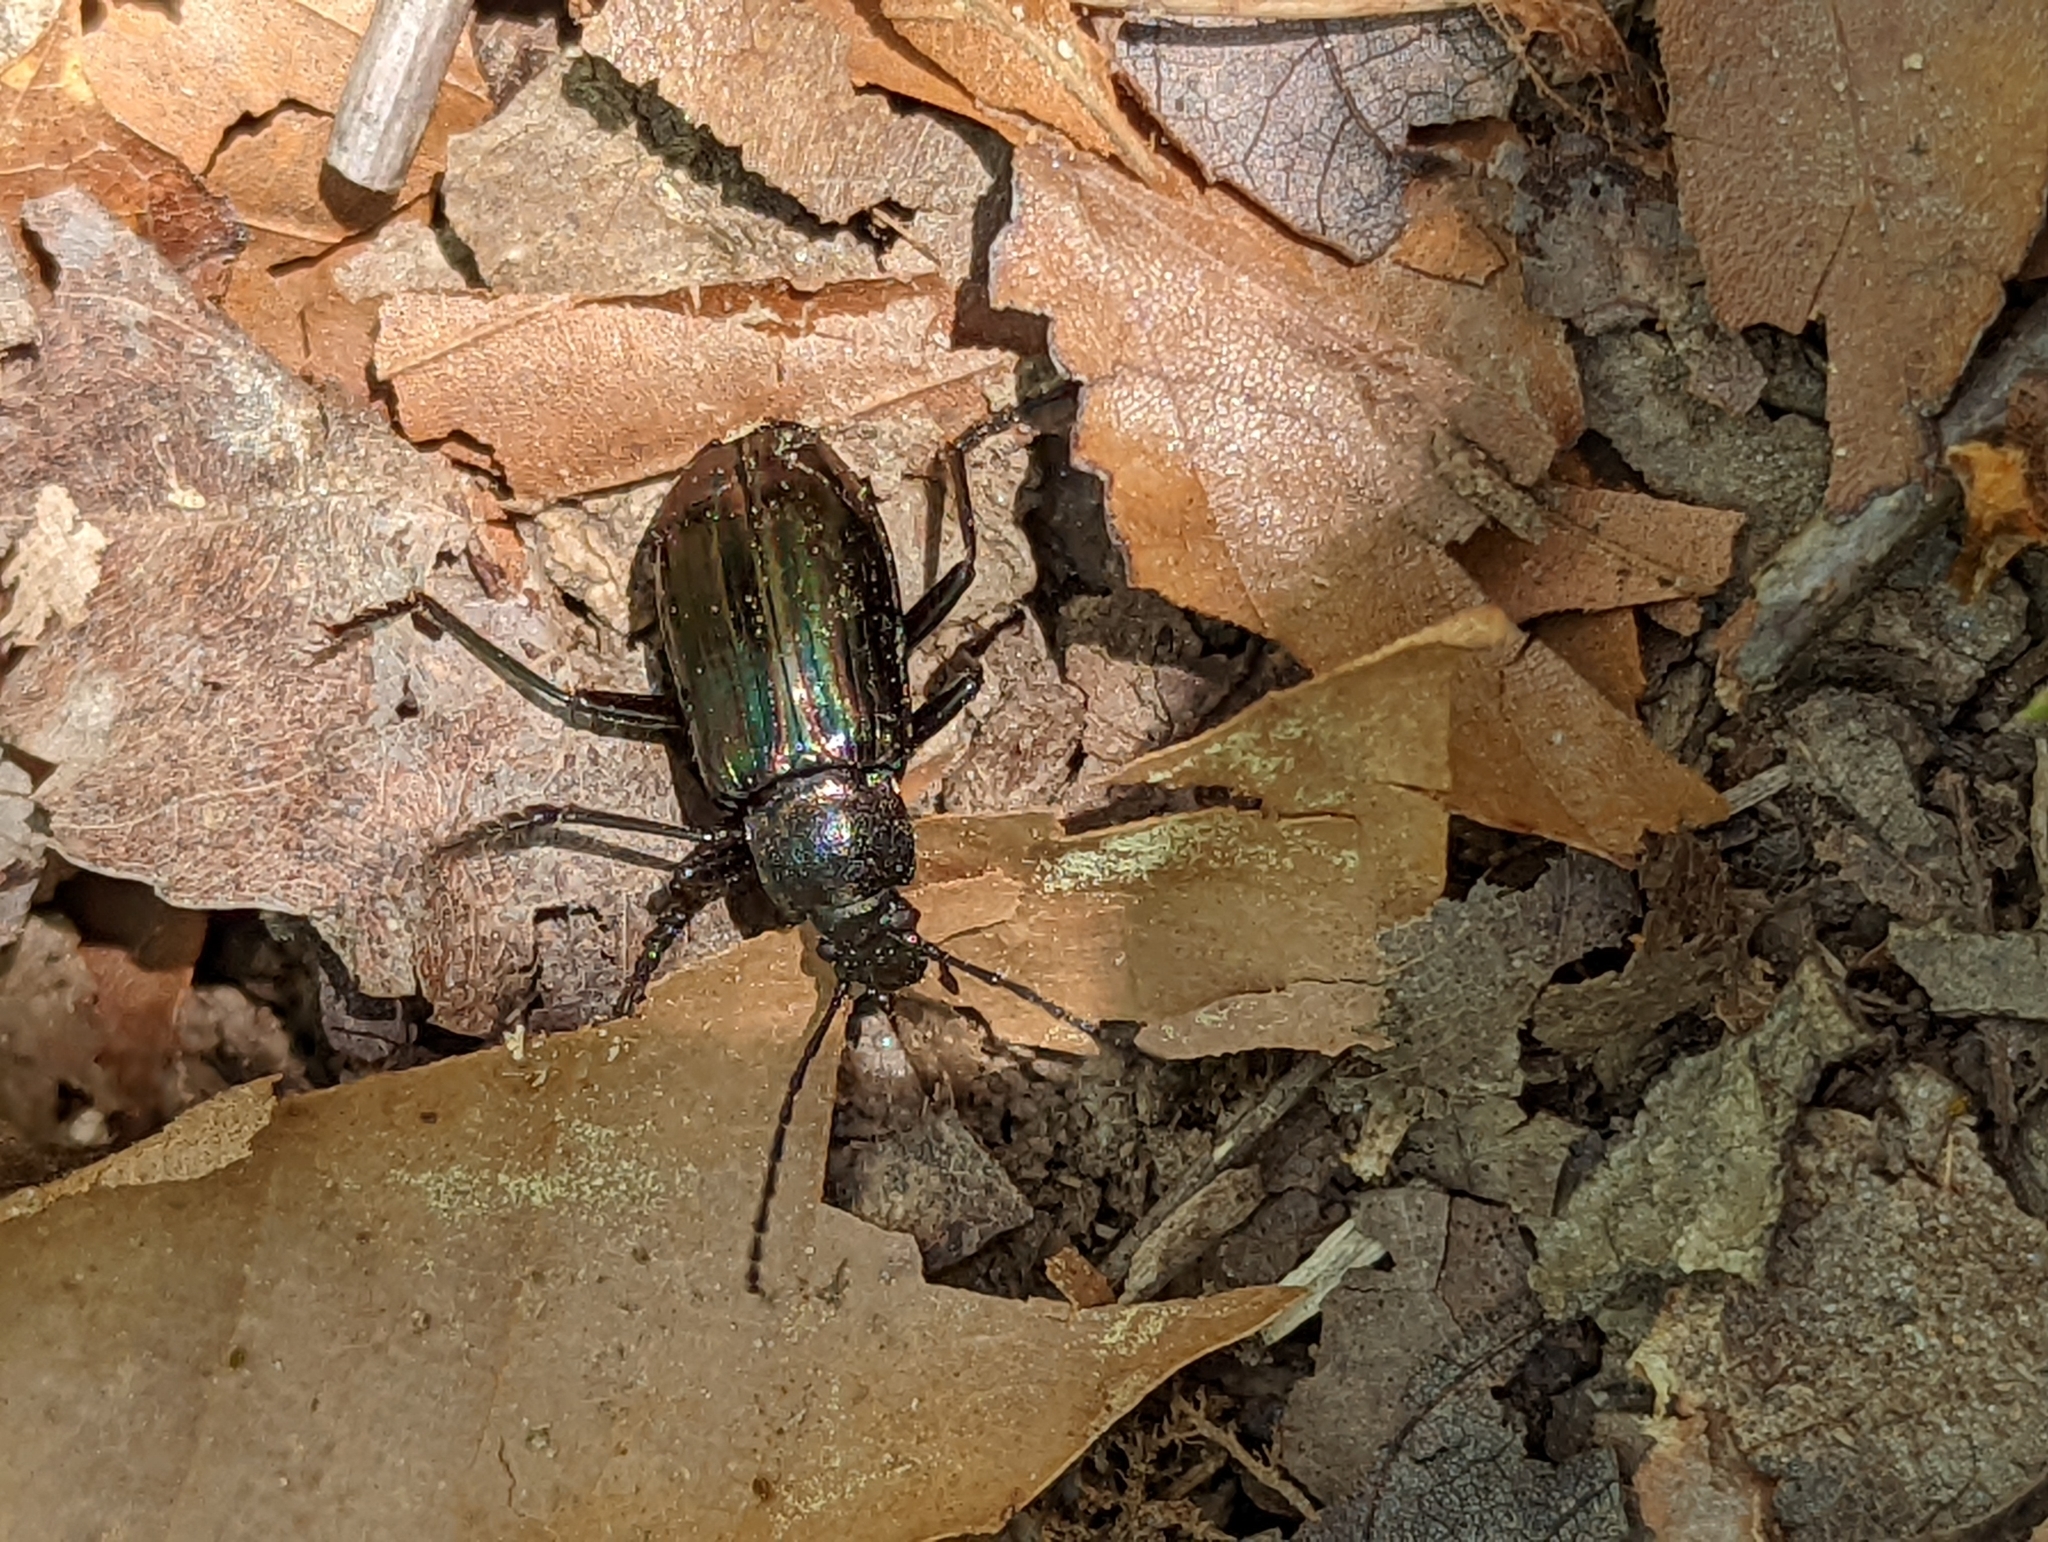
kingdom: Animalia
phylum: Arthropoda
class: Insecta
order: Coleoptera
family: Tenebrionidae
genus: Tarpela
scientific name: Tarpela micans
